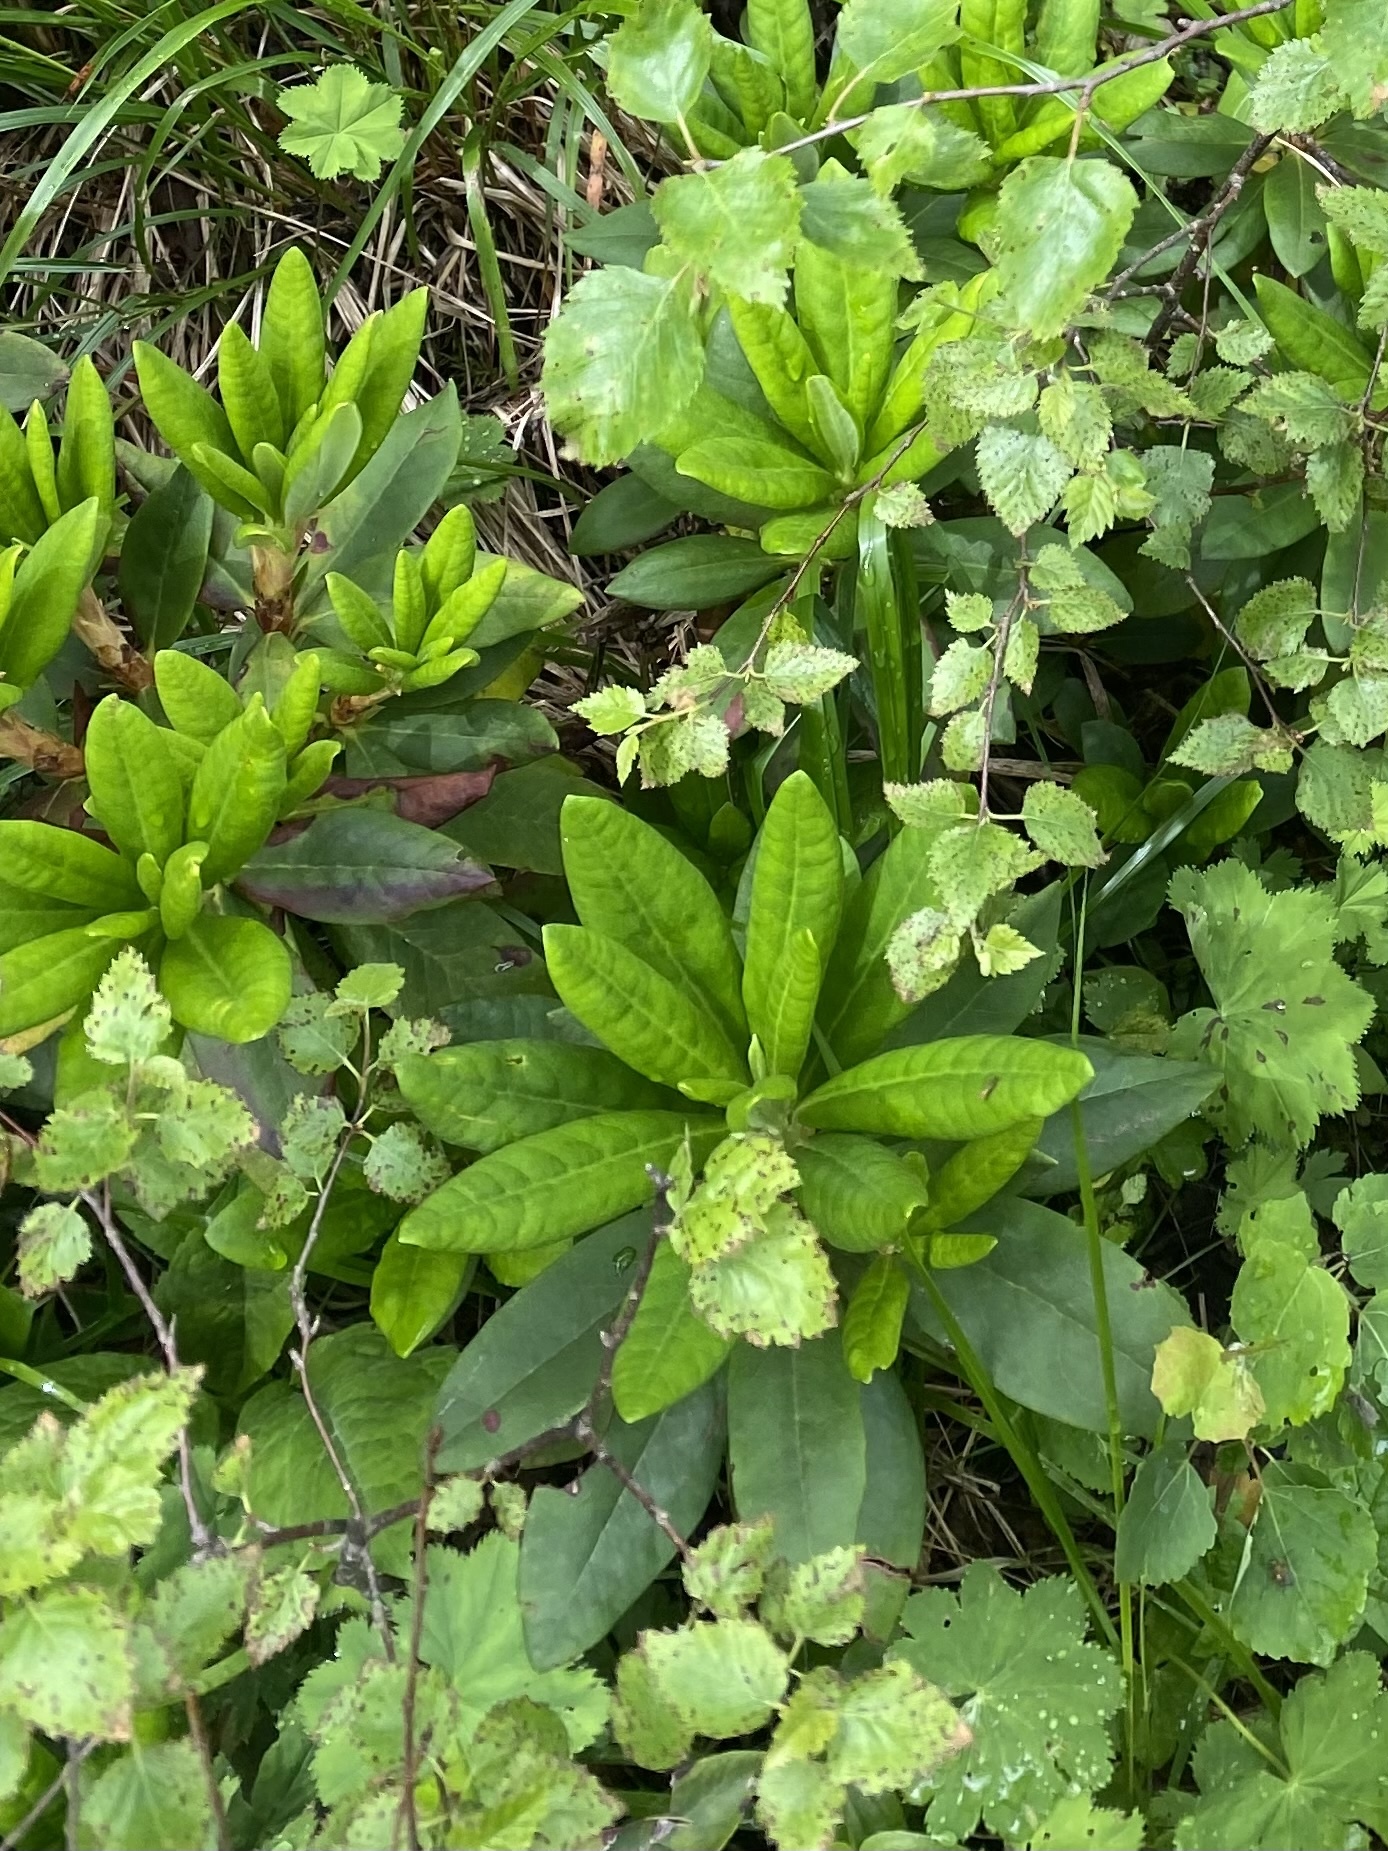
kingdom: Plantae
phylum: Tracheophyta
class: Magnoliopsida
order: Ericales
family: Ericaceae
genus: Rhododendron
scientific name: Rhododendron caucasicum
